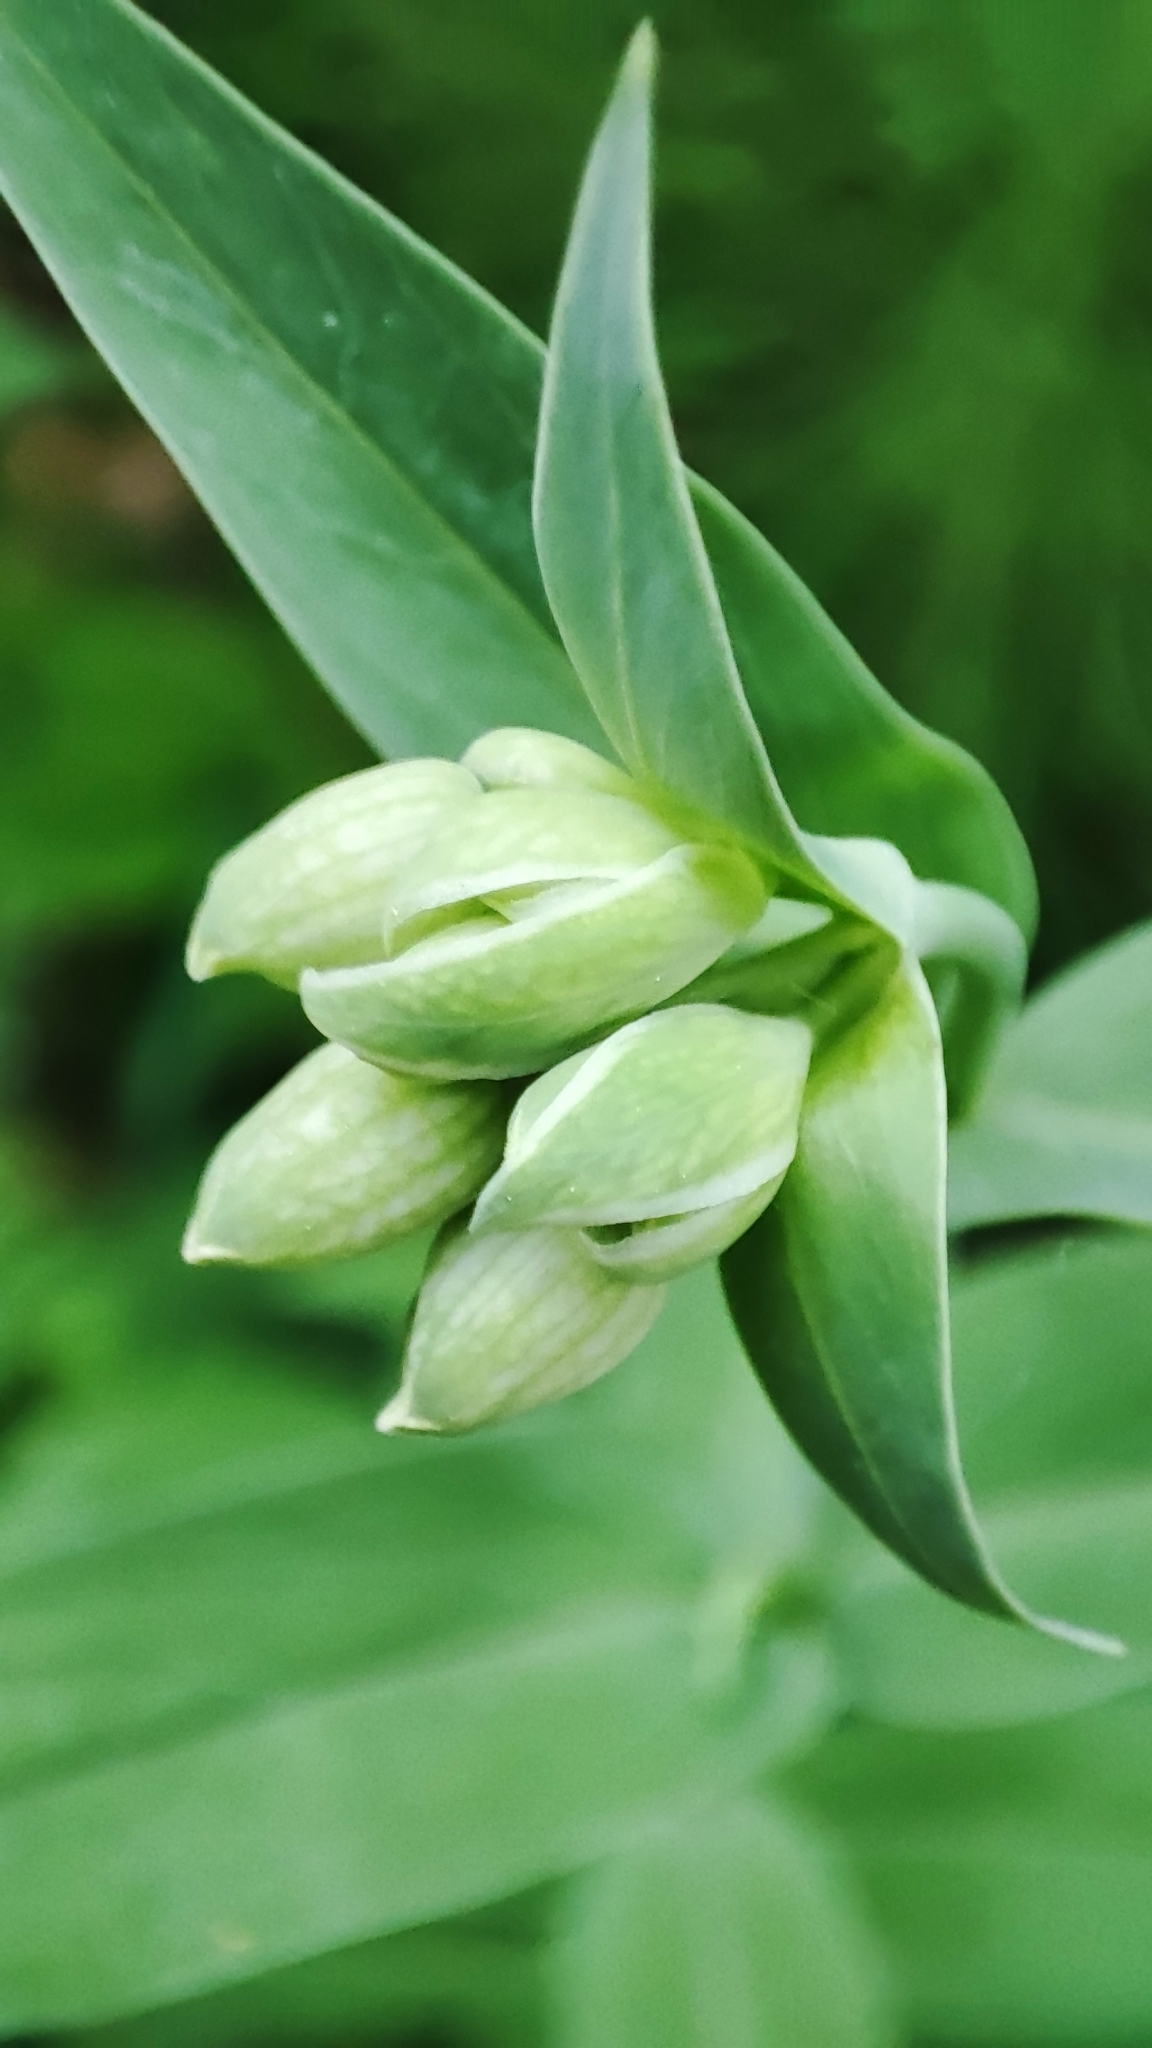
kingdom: Plantae
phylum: Tracheophyta
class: Magnoliopsida
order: Caryophyllales
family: Caryophyllaceae
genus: Silene
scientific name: Silene vulgaris
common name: Bladder campion
